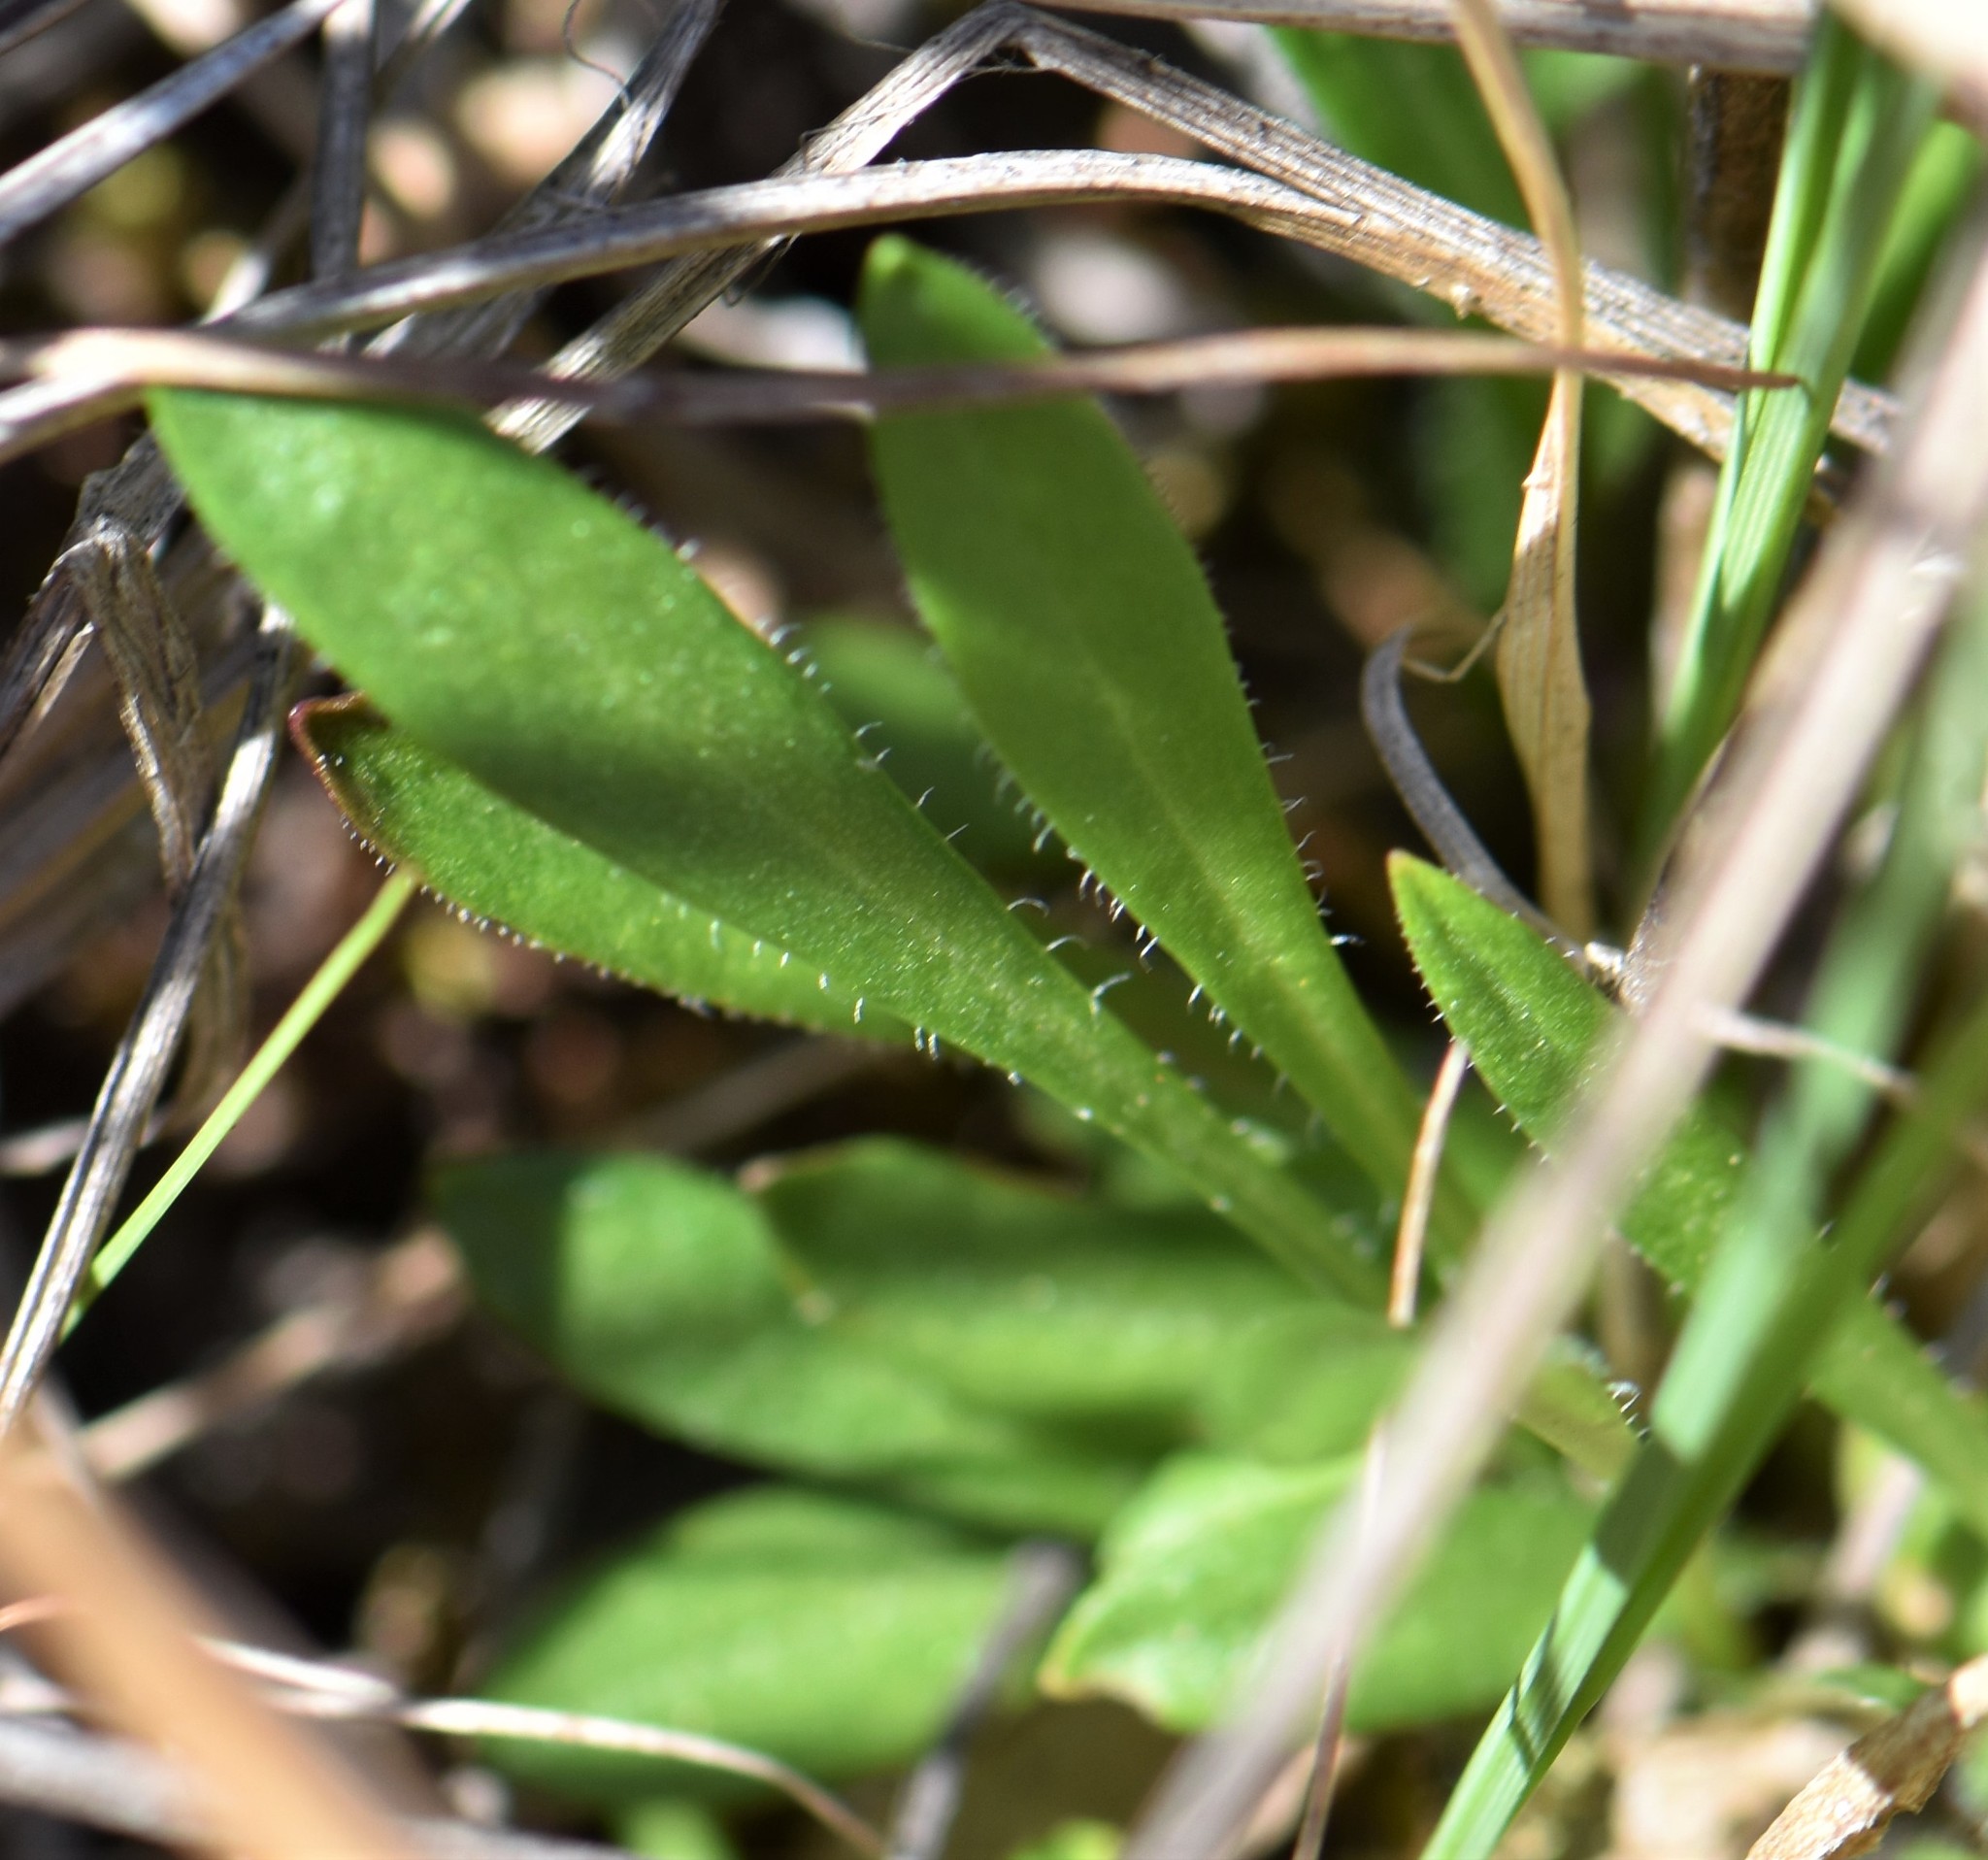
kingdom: Plantae
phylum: Tracheophyta
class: Magnoliopsida
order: Saxifragales
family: Saxifragaceae
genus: Saxifraga
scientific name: Saxifraga hirculus
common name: Yellow marsh saxifrage
